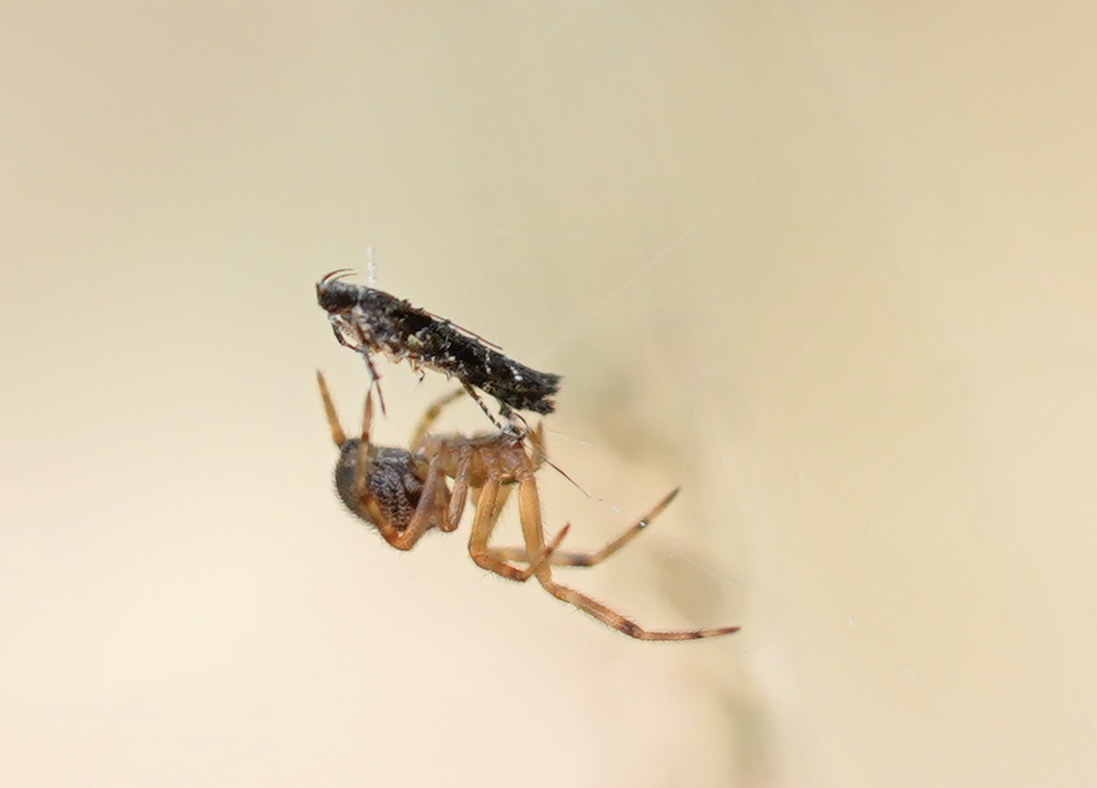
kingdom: Animalia
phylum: Arthropoda
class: Arachnida
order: Araneae
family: Theridiidae
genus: Steatoda
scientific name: Steatoda nobilis
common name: Cobweb weaver
